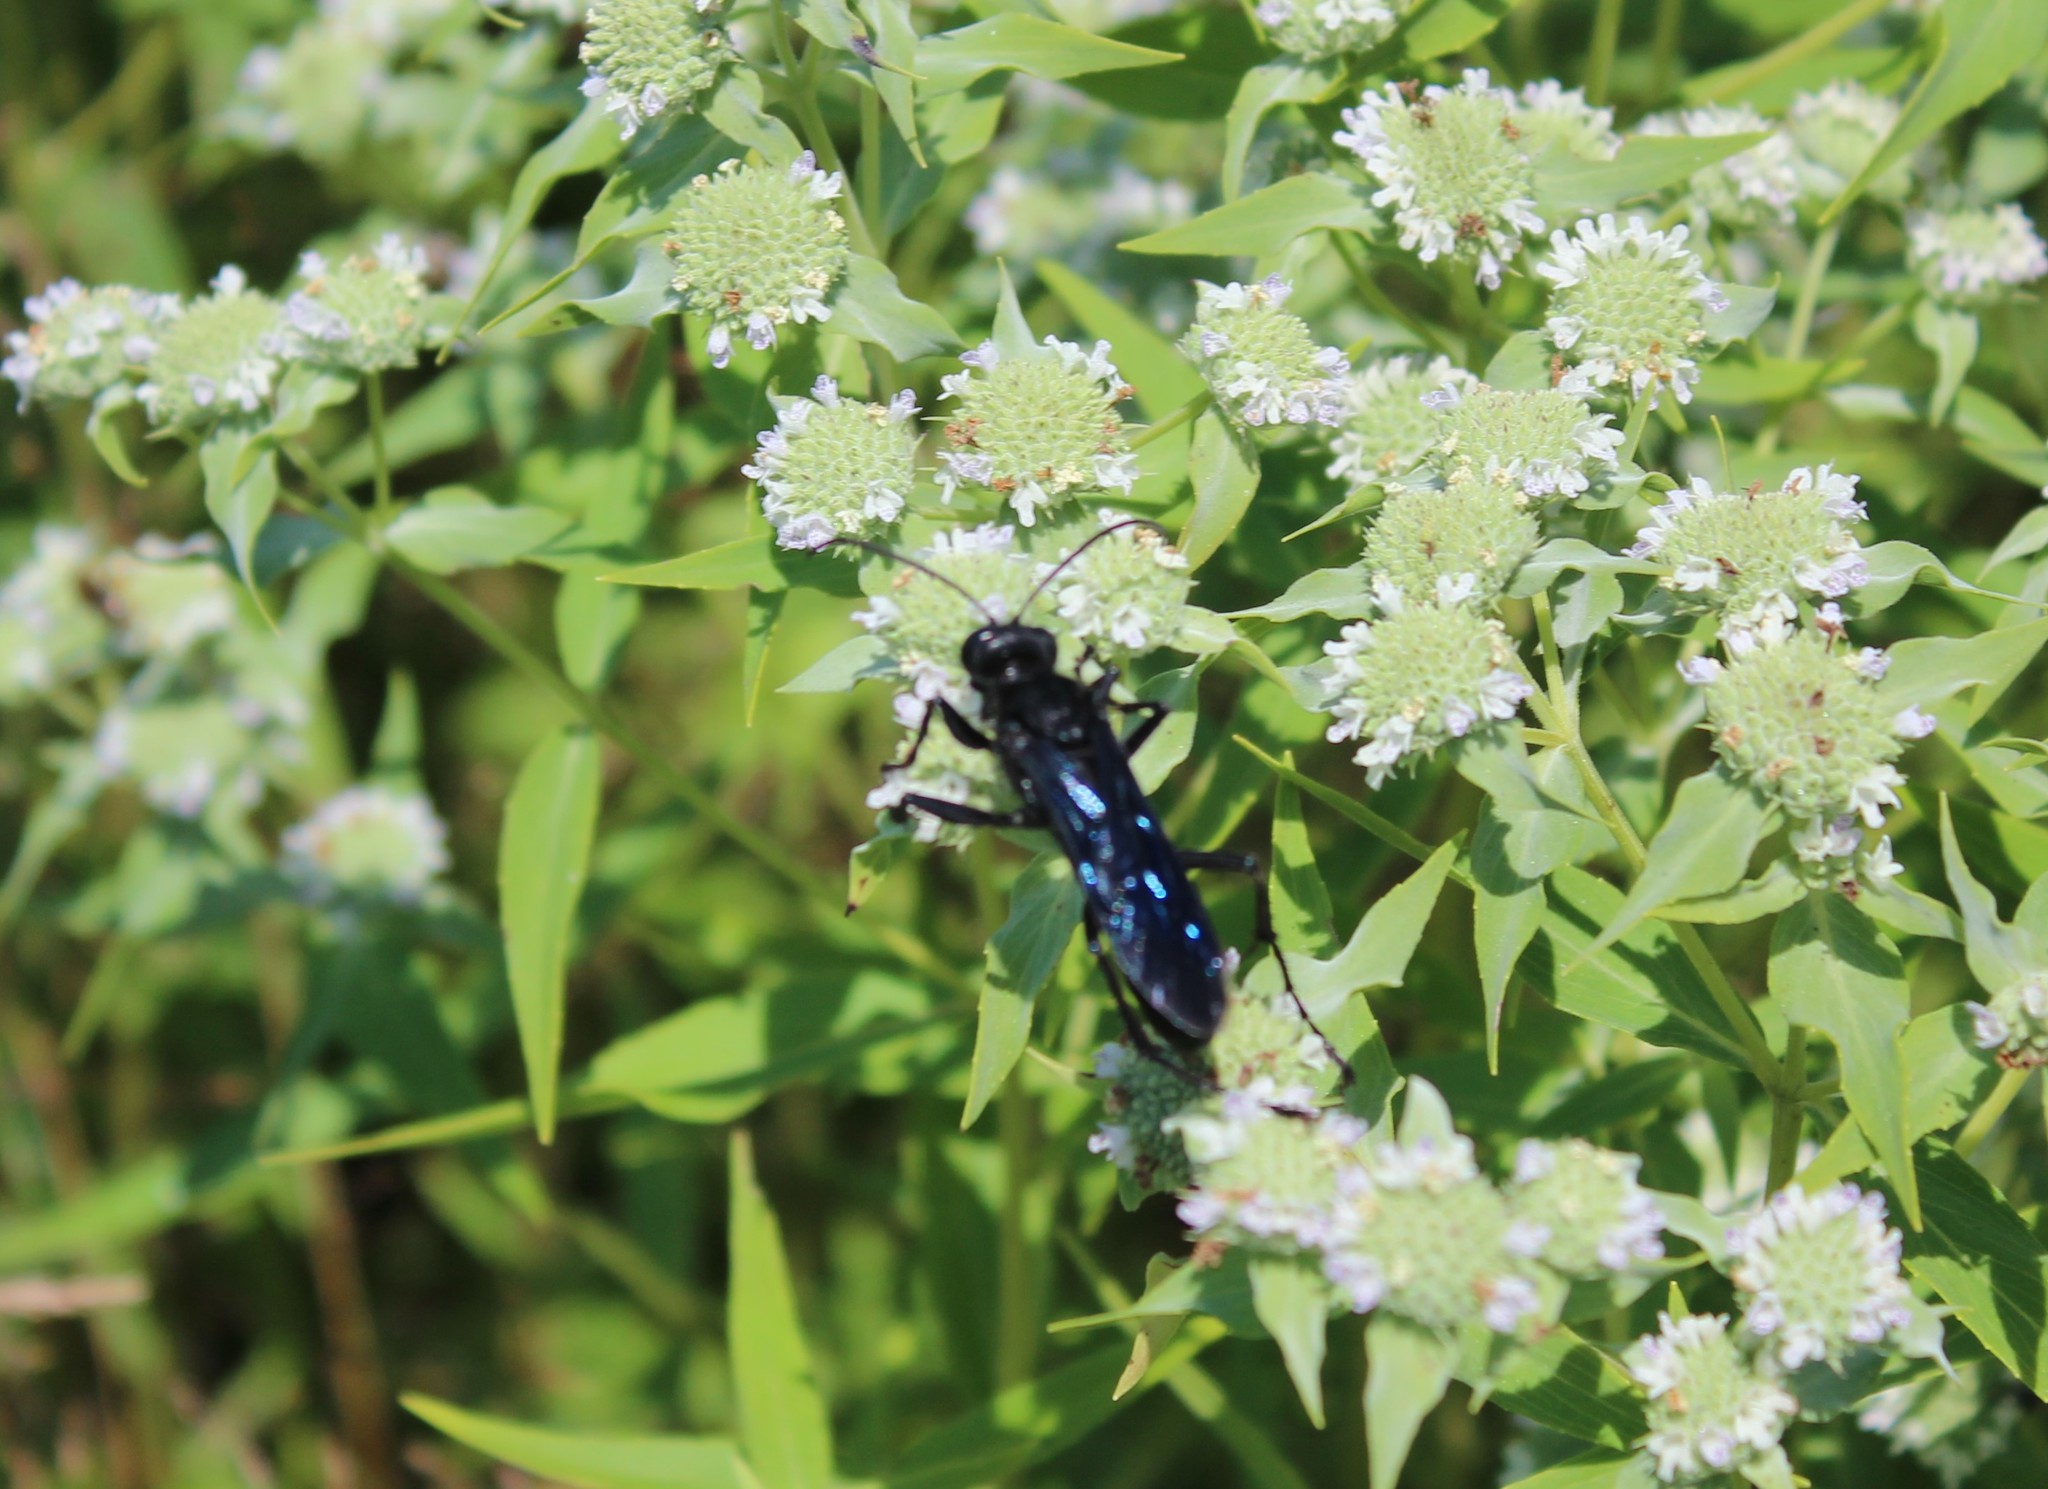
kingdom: Animalia
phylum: Arthropoda
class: Insecta
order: Hymenoptera
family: Sphecidae
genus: Sphex
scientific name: Sphex pensylvanicus
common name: Great black digger wasp
